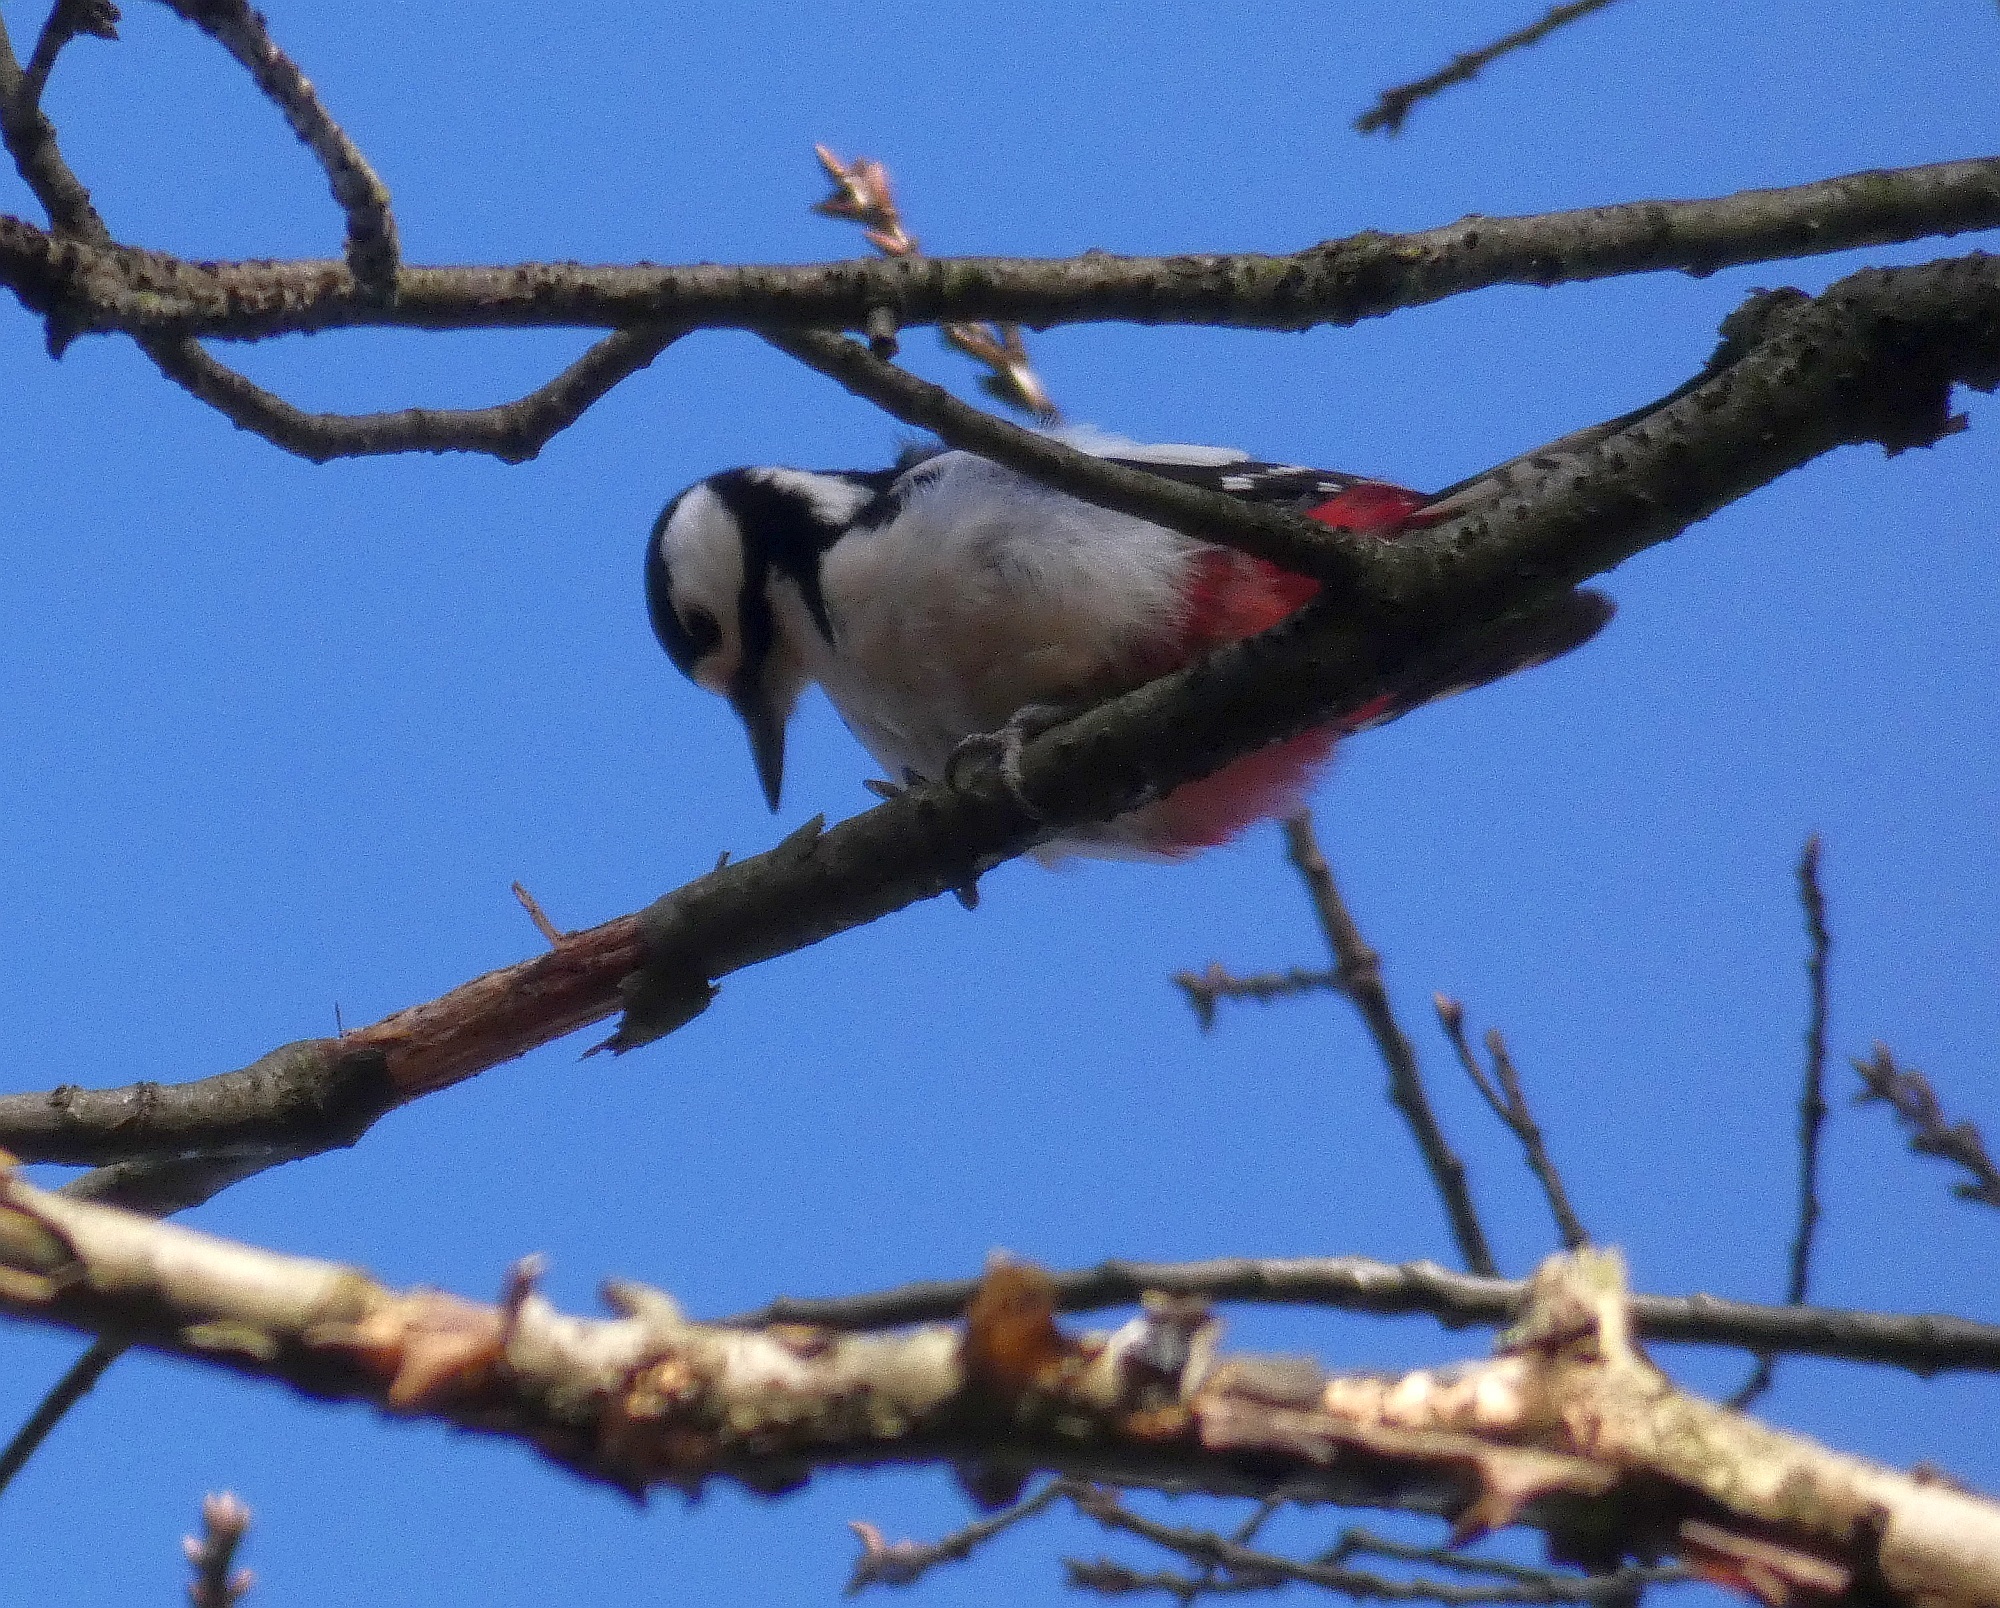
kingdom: Animalia
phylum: Chordata
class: Aves
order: Piciformes
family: Picidae
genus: Dendrocopos
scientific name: Dendrocopos major
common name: Great spotted woodpecker
